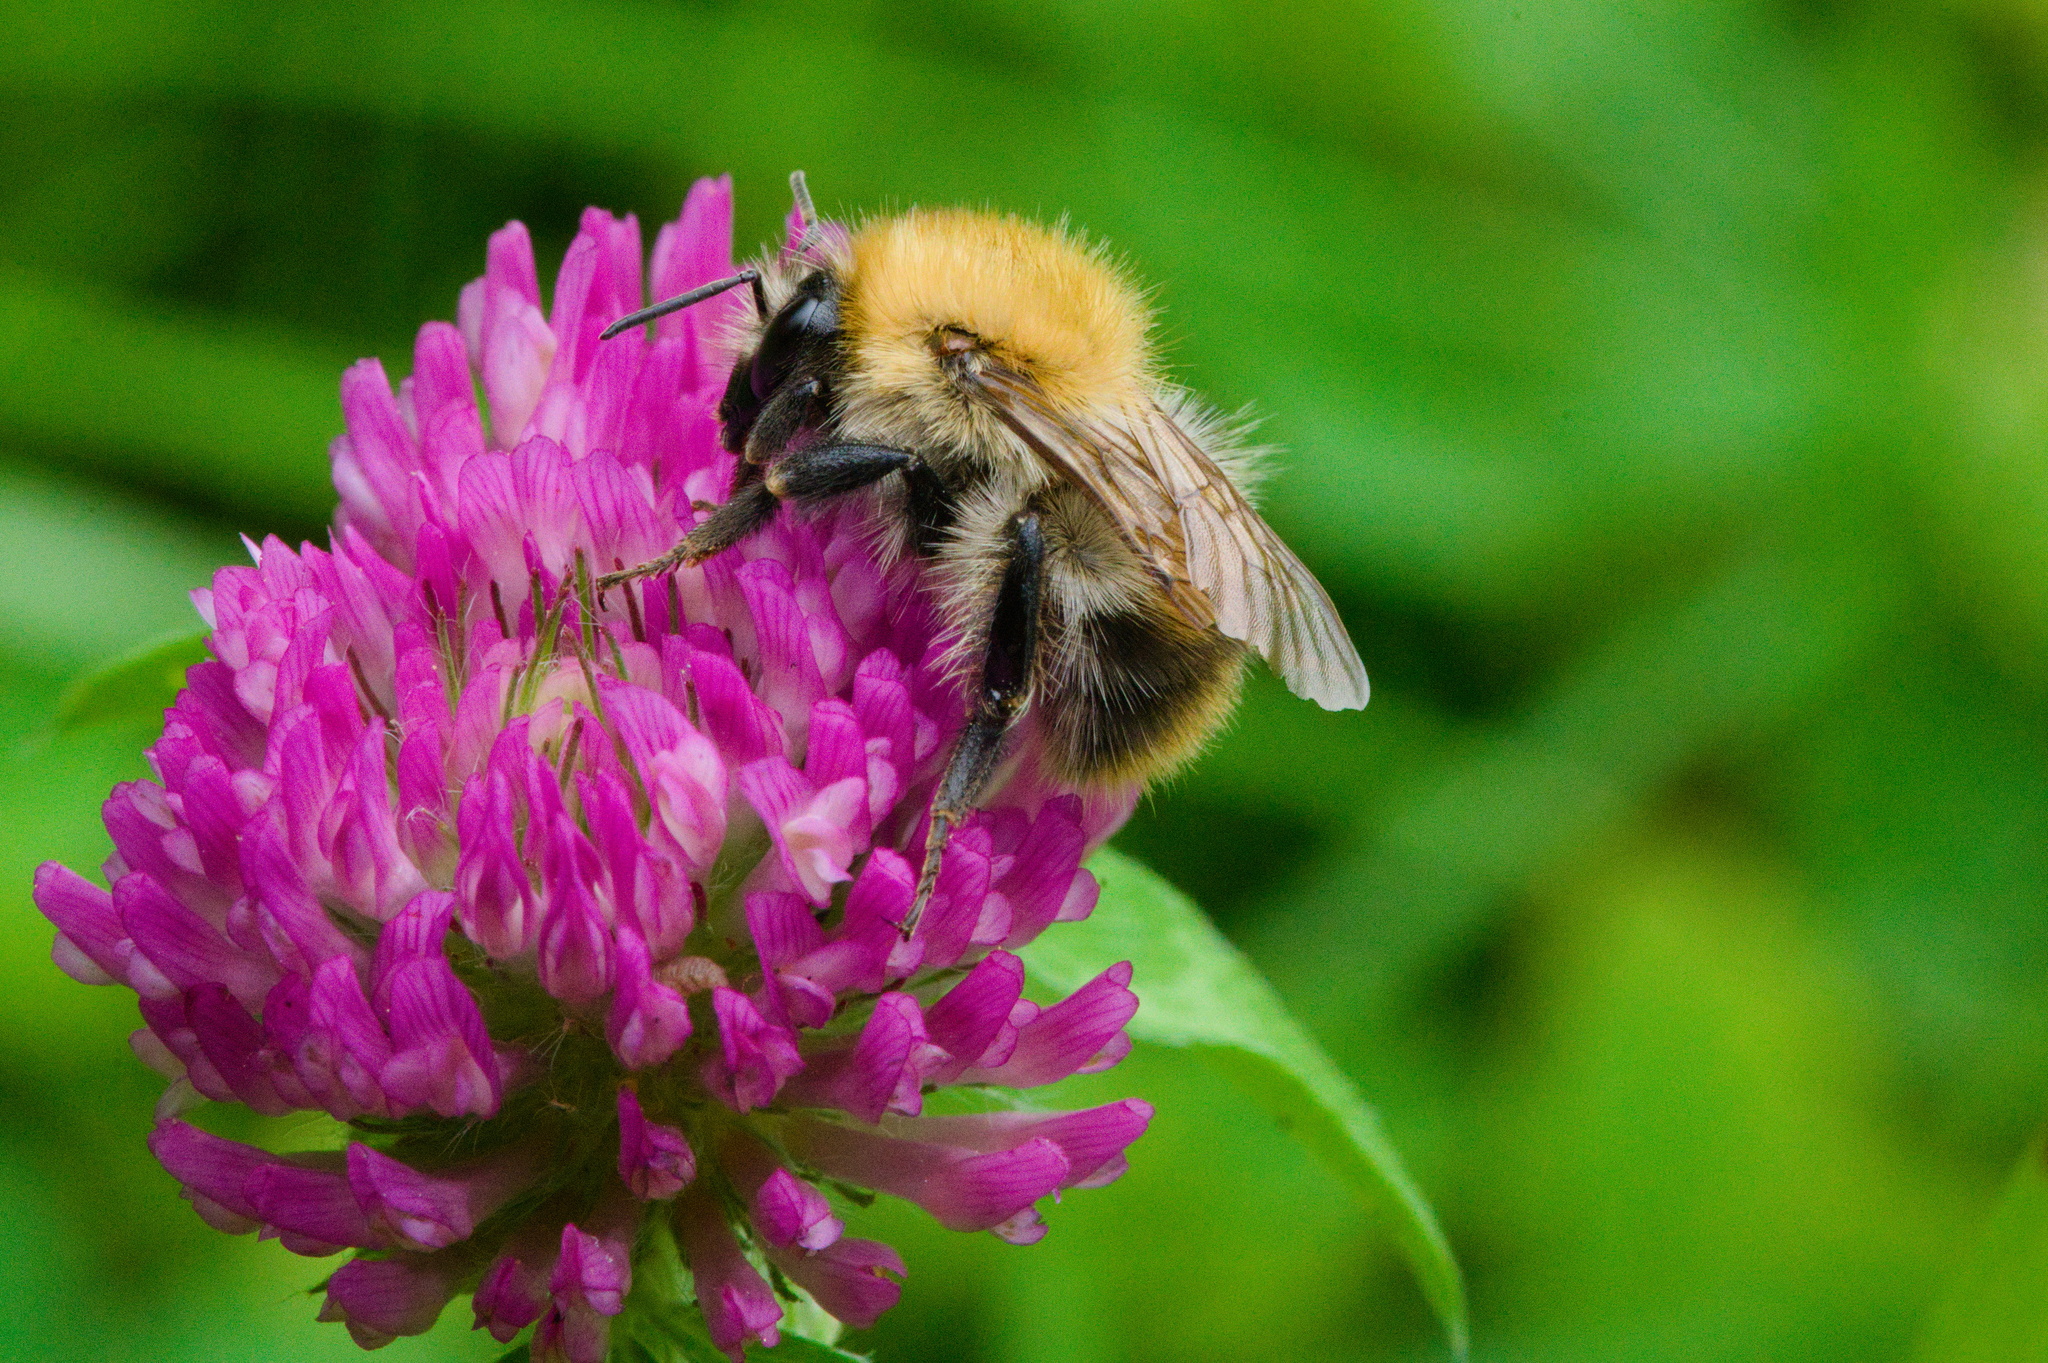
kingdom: Animalia
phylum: Arthropoda
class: Insecta
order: Hymenoptera
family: Apidae
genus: Bombus
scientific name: Bombus pascuorum
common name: Common carder bee
